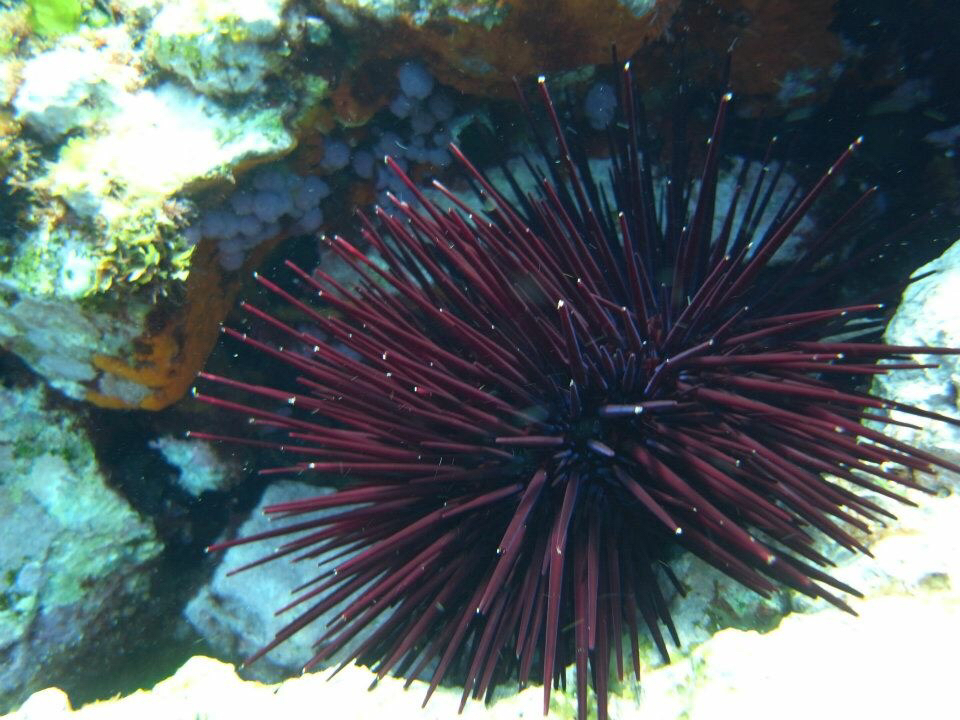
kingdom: Animalia
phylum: Echinodermata
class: Echinoidea
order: Diadematoida
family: Diadematidae
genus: Centrostephanus
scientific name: Centrostephanus rodgersii
